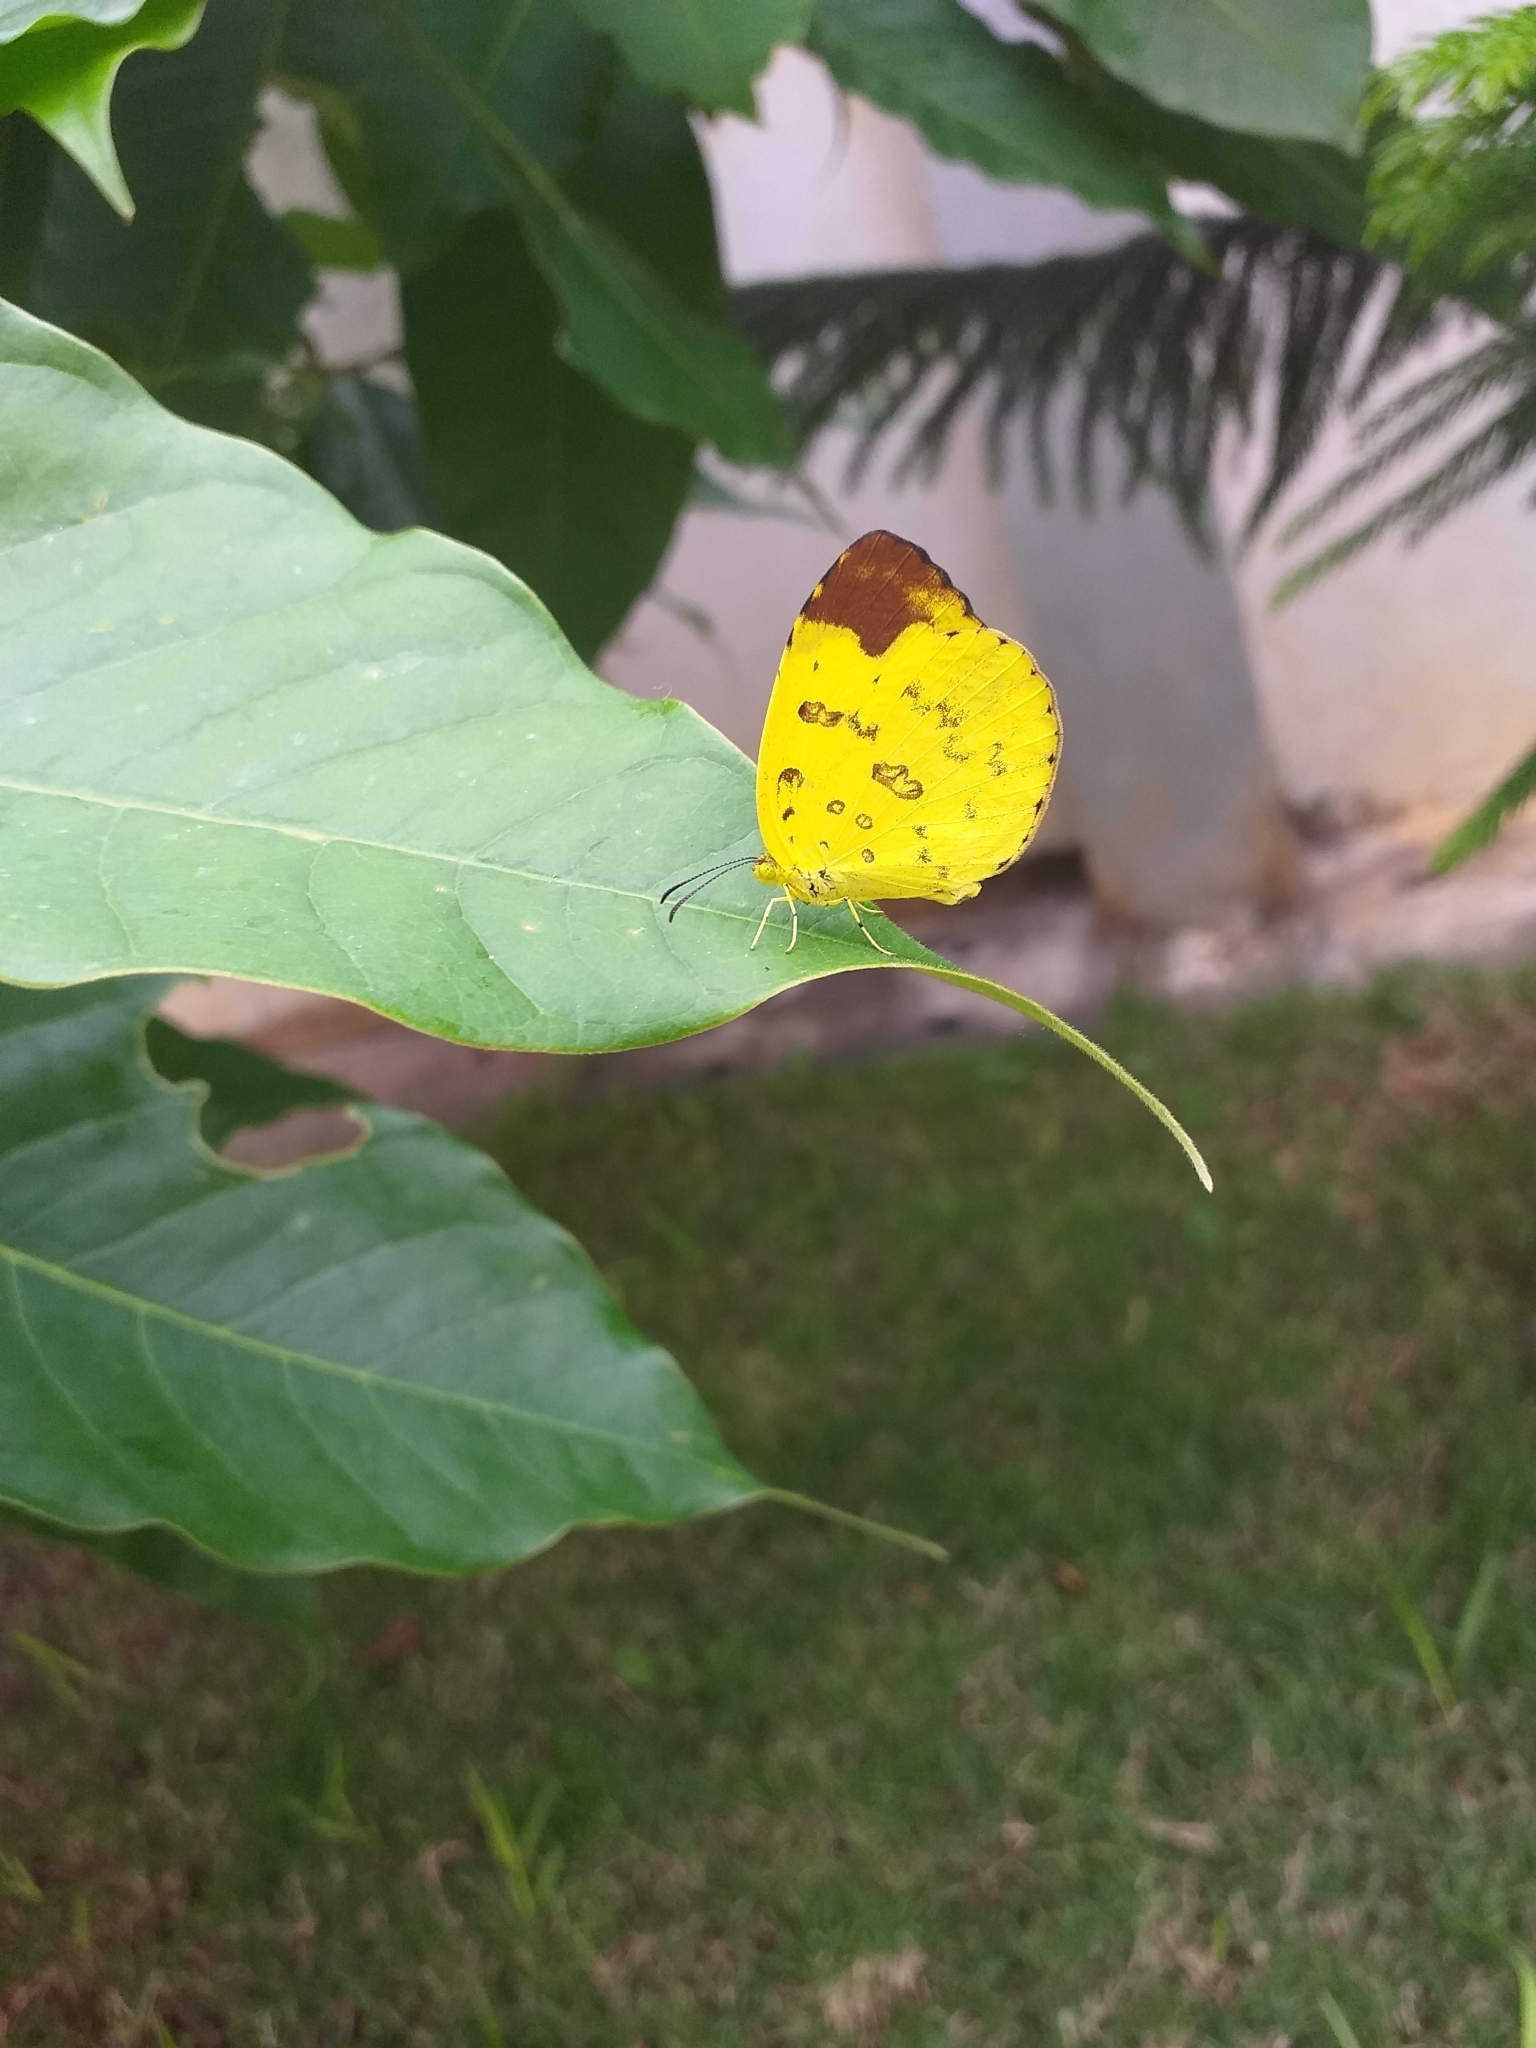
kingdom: Animalia
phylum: Arthropoda
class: Insecta
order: Lepidoptera
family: Pieridae
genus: Eurema
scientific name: Eurema blanda
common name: Three-spot grass yellow
